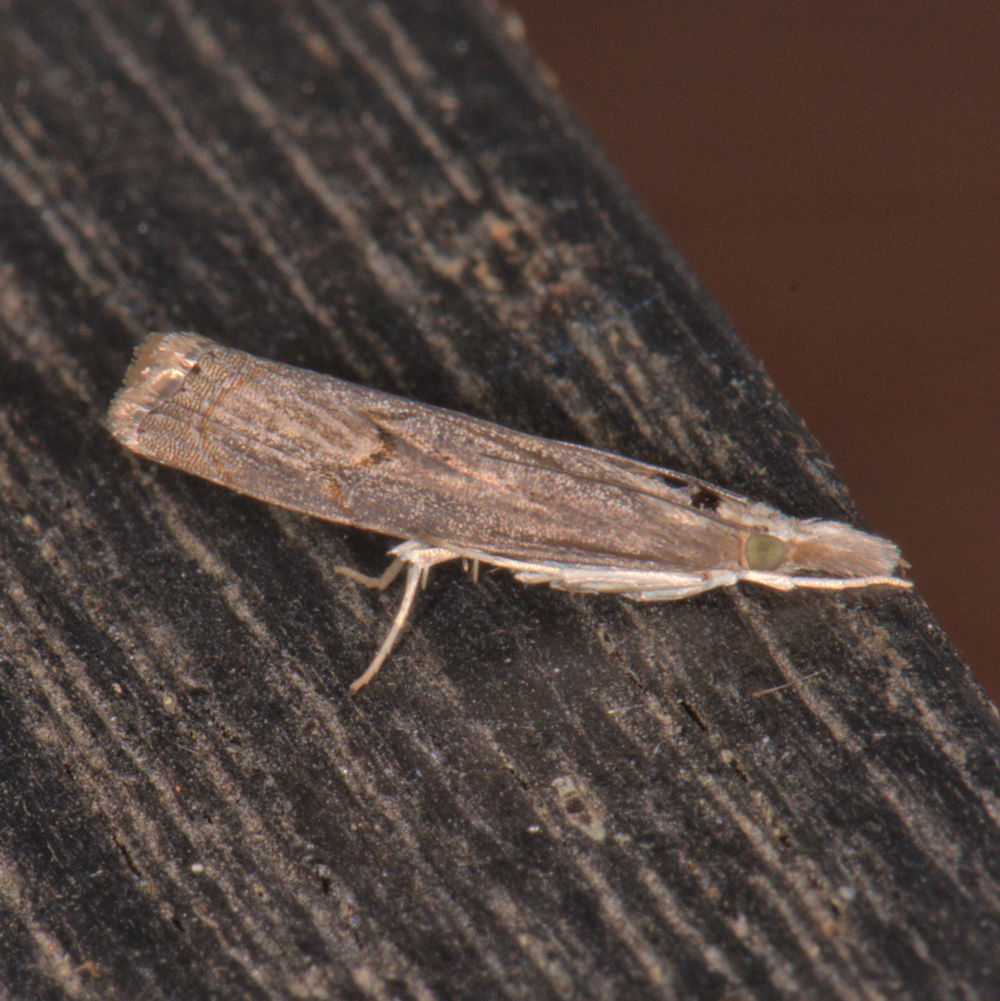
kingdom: Animalia
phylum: Arthropoda
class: Insecta
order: Lepidoptera
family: Crambidae
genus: Parapediasia
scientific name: Parapediasia teterellus
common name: Bluegrass webworm moth
